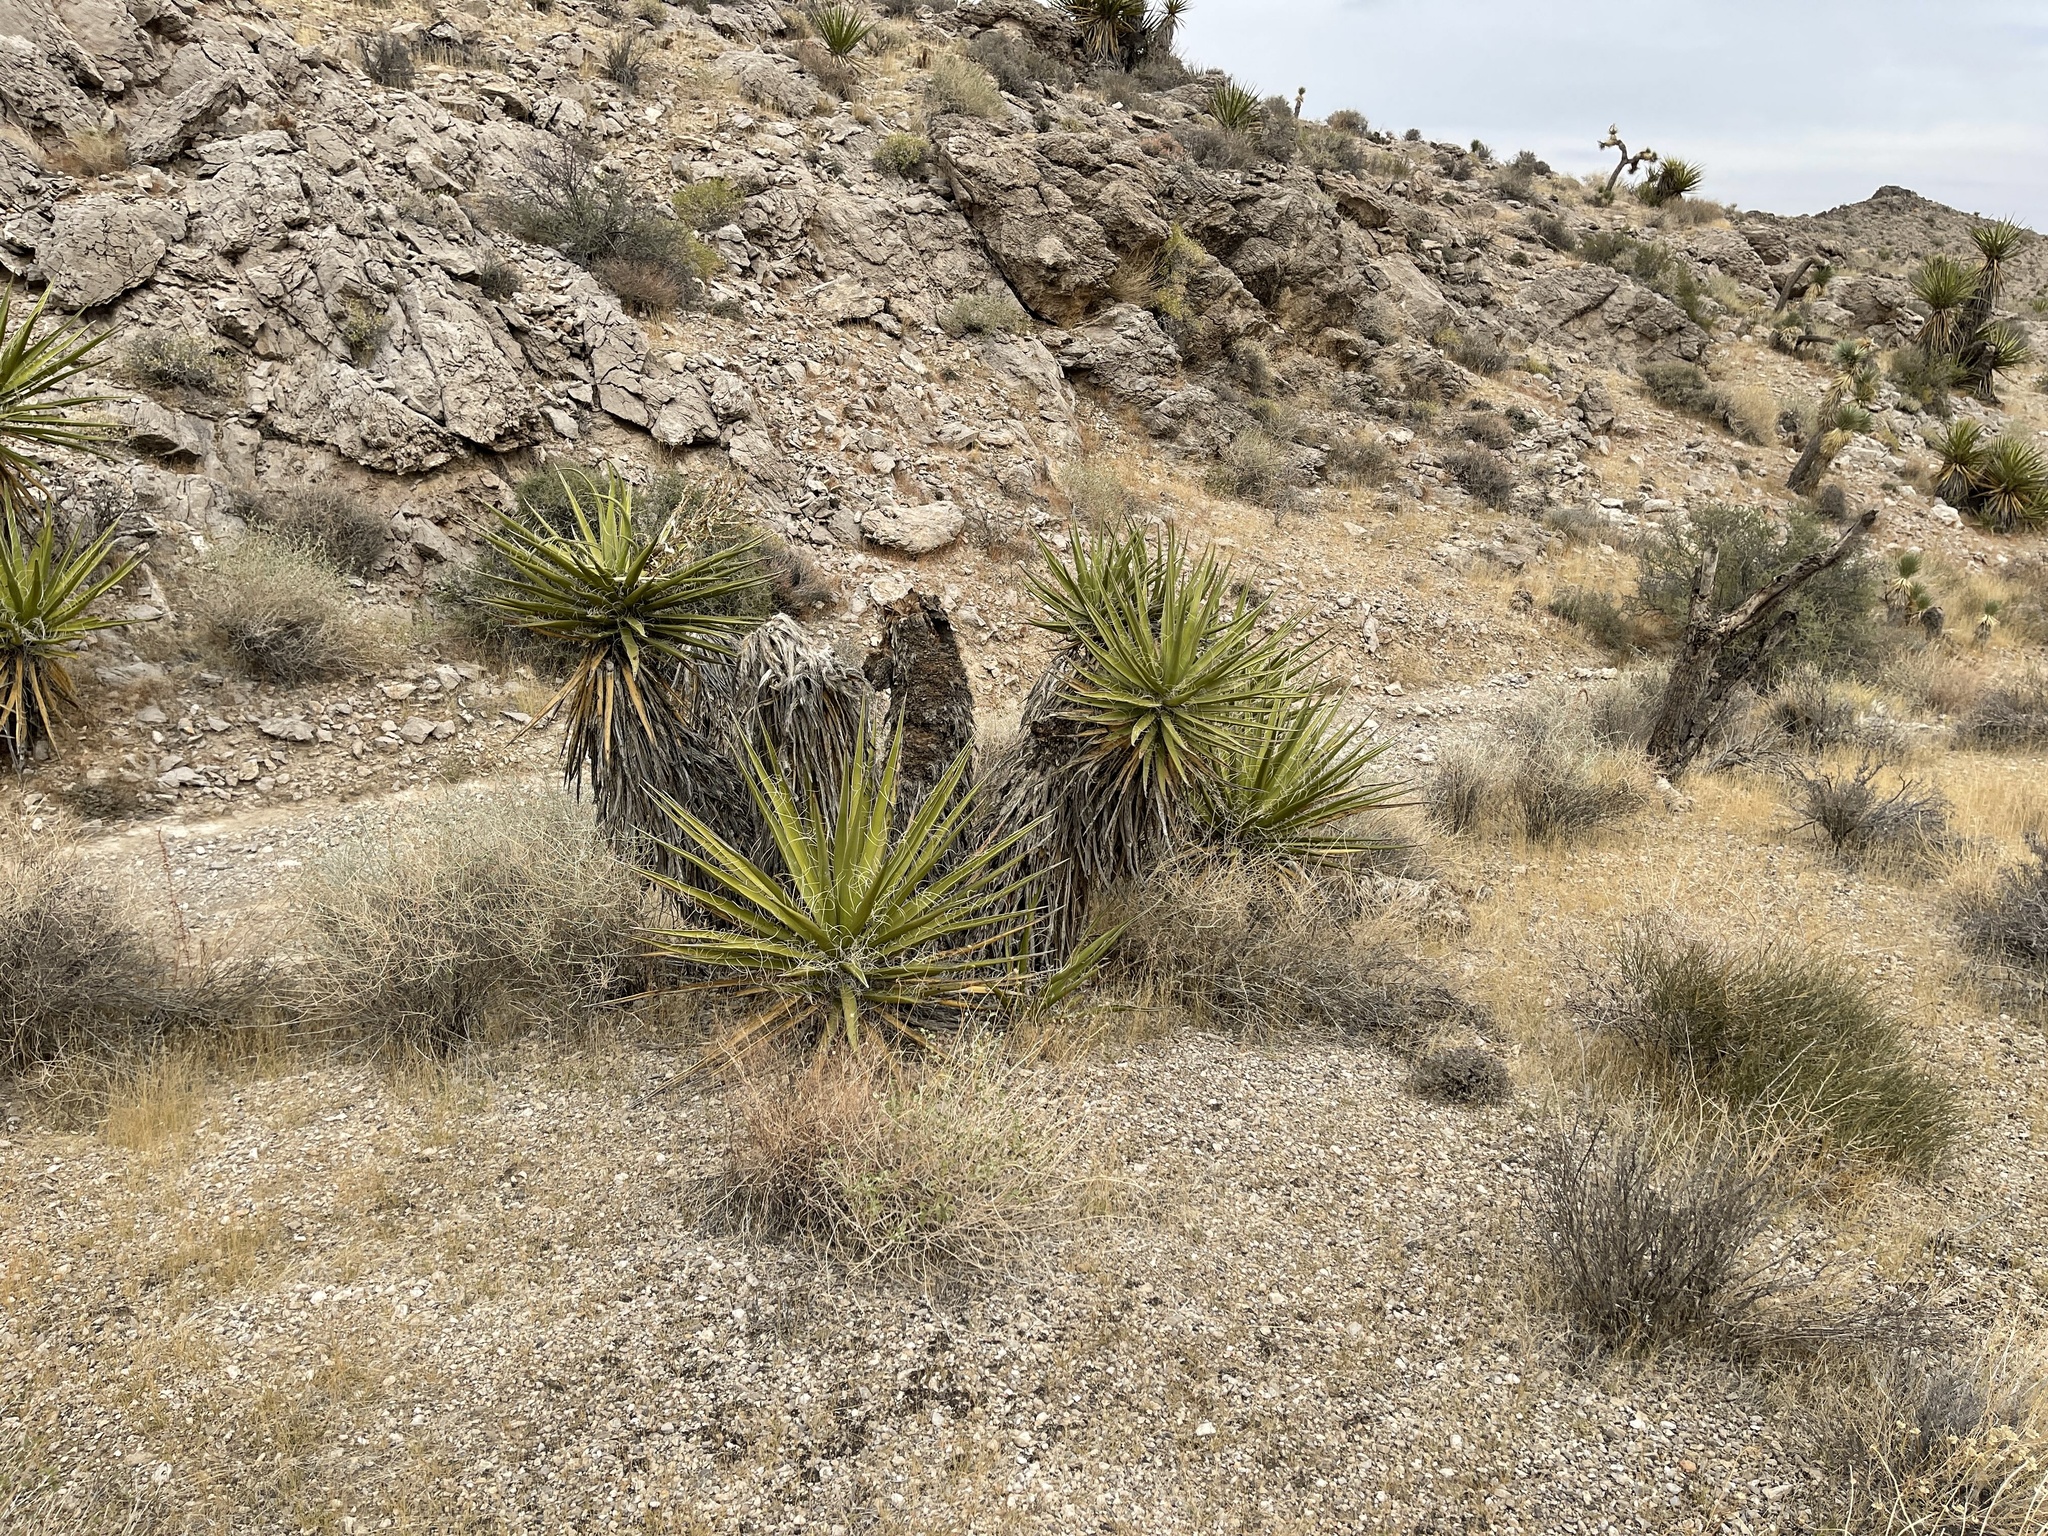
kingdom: Plantae
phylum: Tracheophyta
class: Liliopsida
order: Asparagales
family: Asparagaceae
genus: Yucca
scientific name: Yucca schidigera
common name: Mojave yucca
